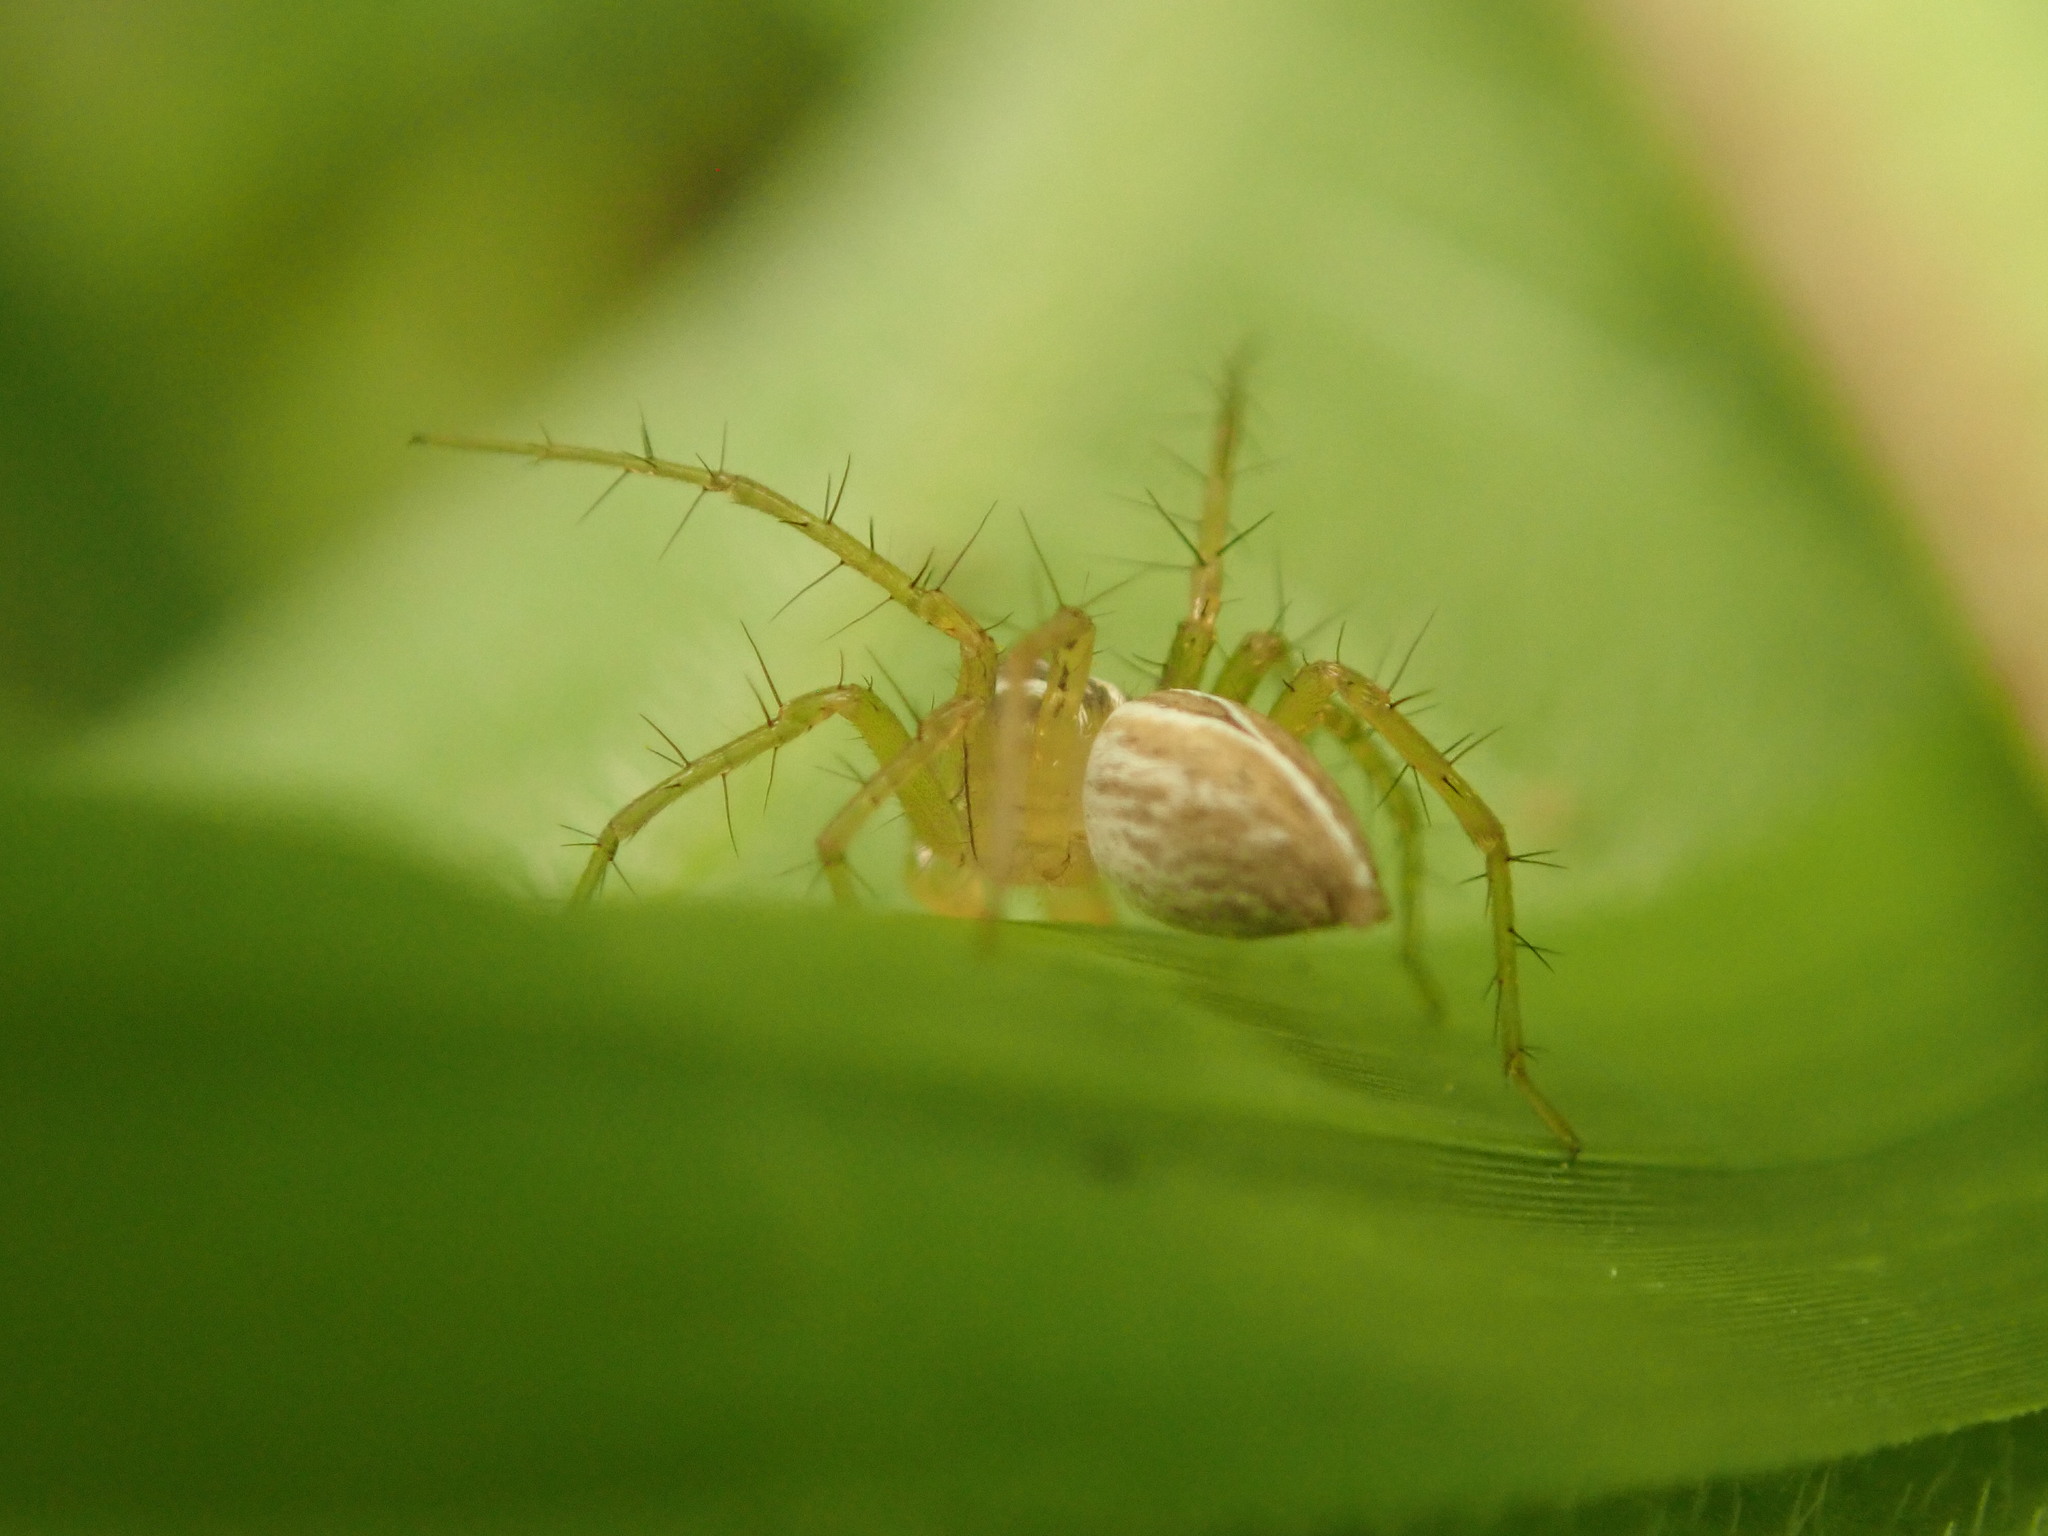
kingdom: Animalia
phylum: Arthropoda
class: Arachnida
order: Araneae
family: Oxyopidae
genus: Oxyopes
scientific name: Oxyopes salticus
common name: Lynx spiders
